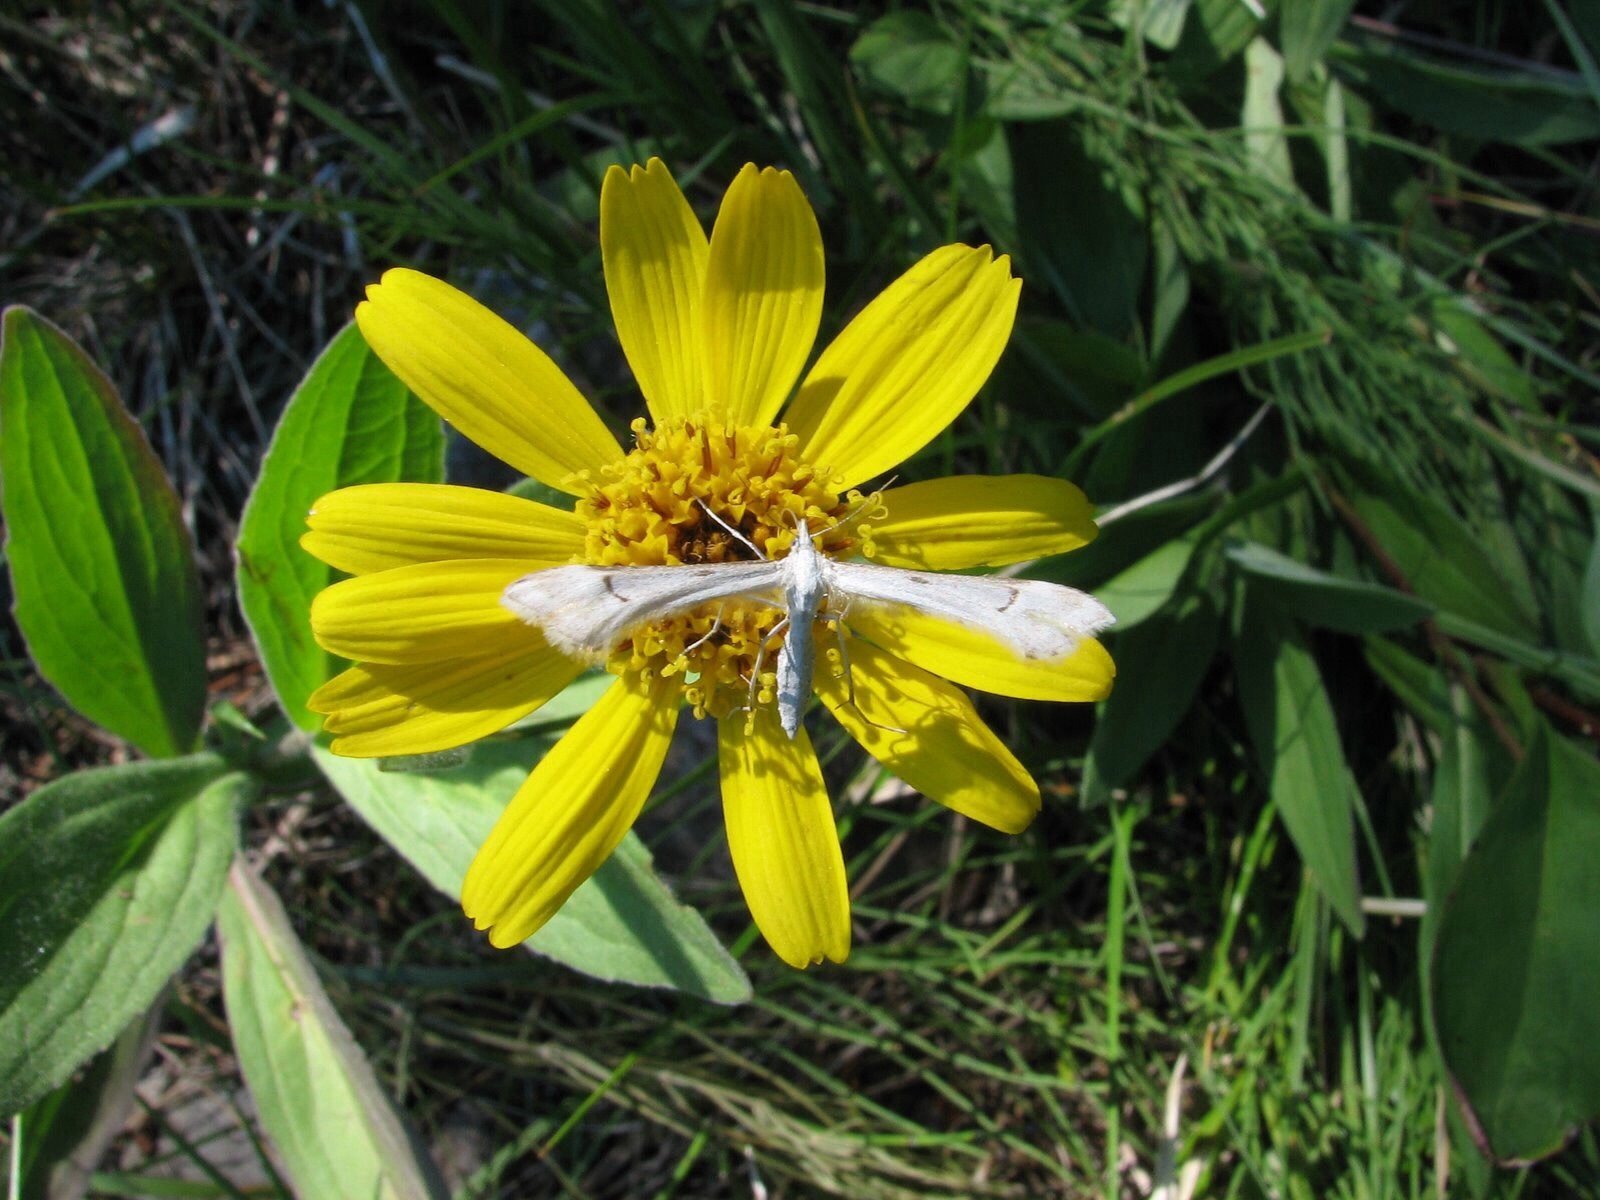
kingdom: Animalia
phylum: Arthropoda
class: Insecta
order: Lepidoptera
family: Pterophoridae
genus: Gillmeria
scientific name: Gillmeria albertae
